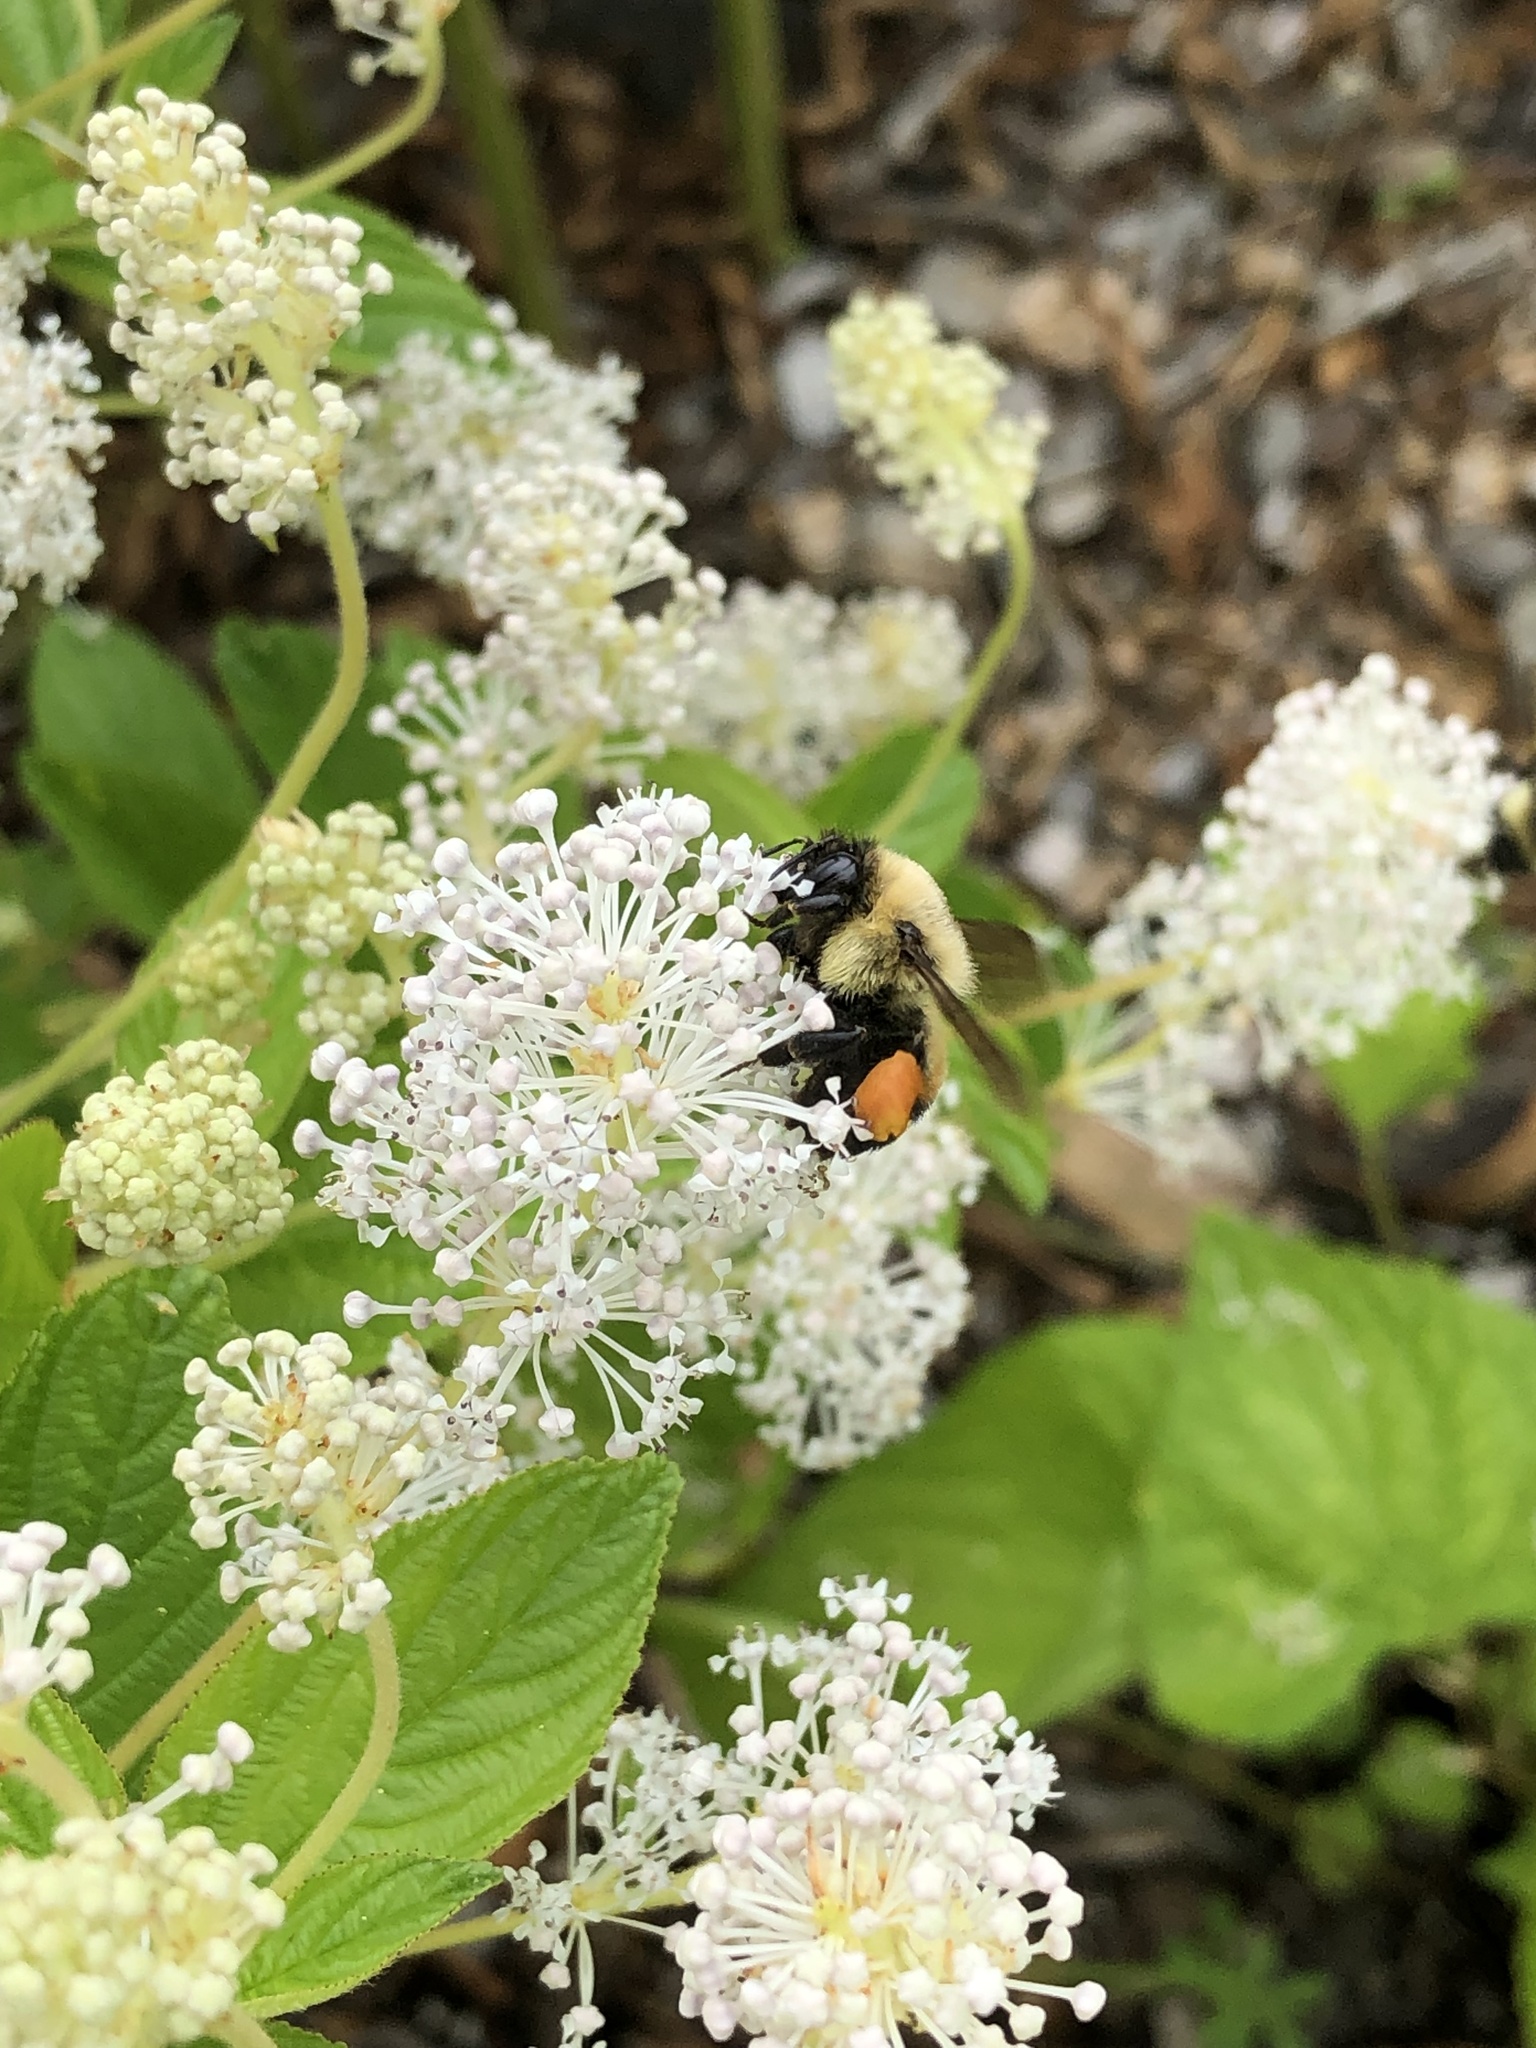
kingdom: Animalia
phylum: Arthropoda
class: Insecta
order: Hymenoptera
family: Apidae
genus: Bombus
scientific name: Bombus griseocollis
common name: Brown-belted bumble bee
